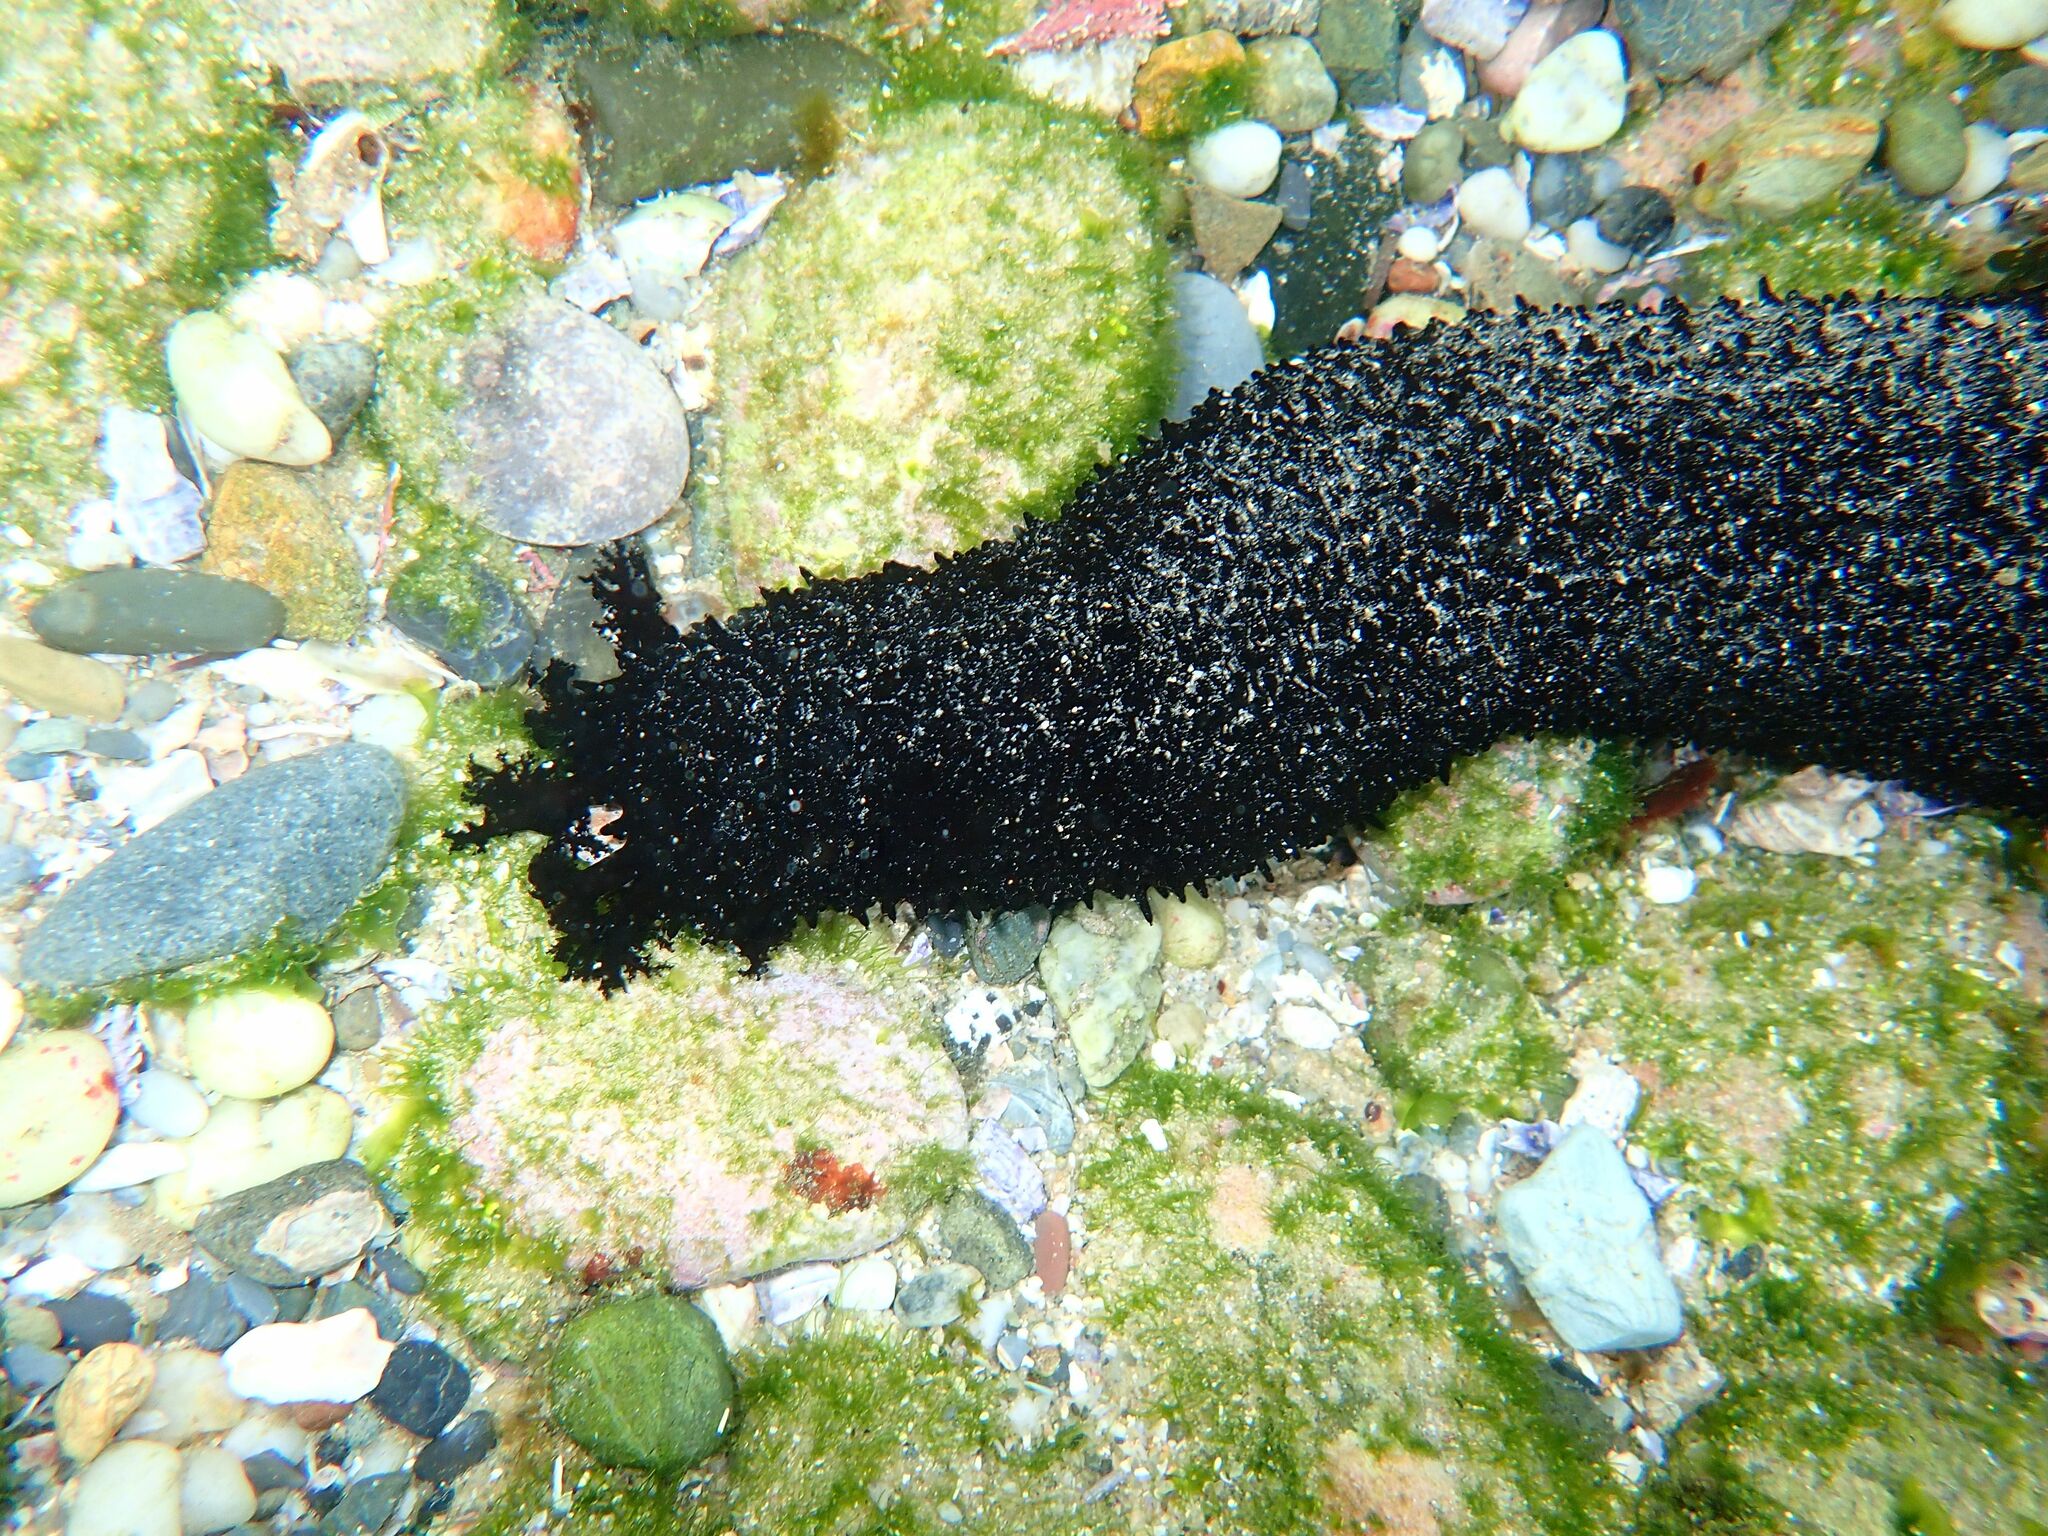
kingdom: Animalia
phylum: Echinodermata
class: Holothuroidea
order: Holothuriida
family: Holothuriidae
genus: Holothuria
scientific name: Holothuria leucospilota
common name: White thread fish
